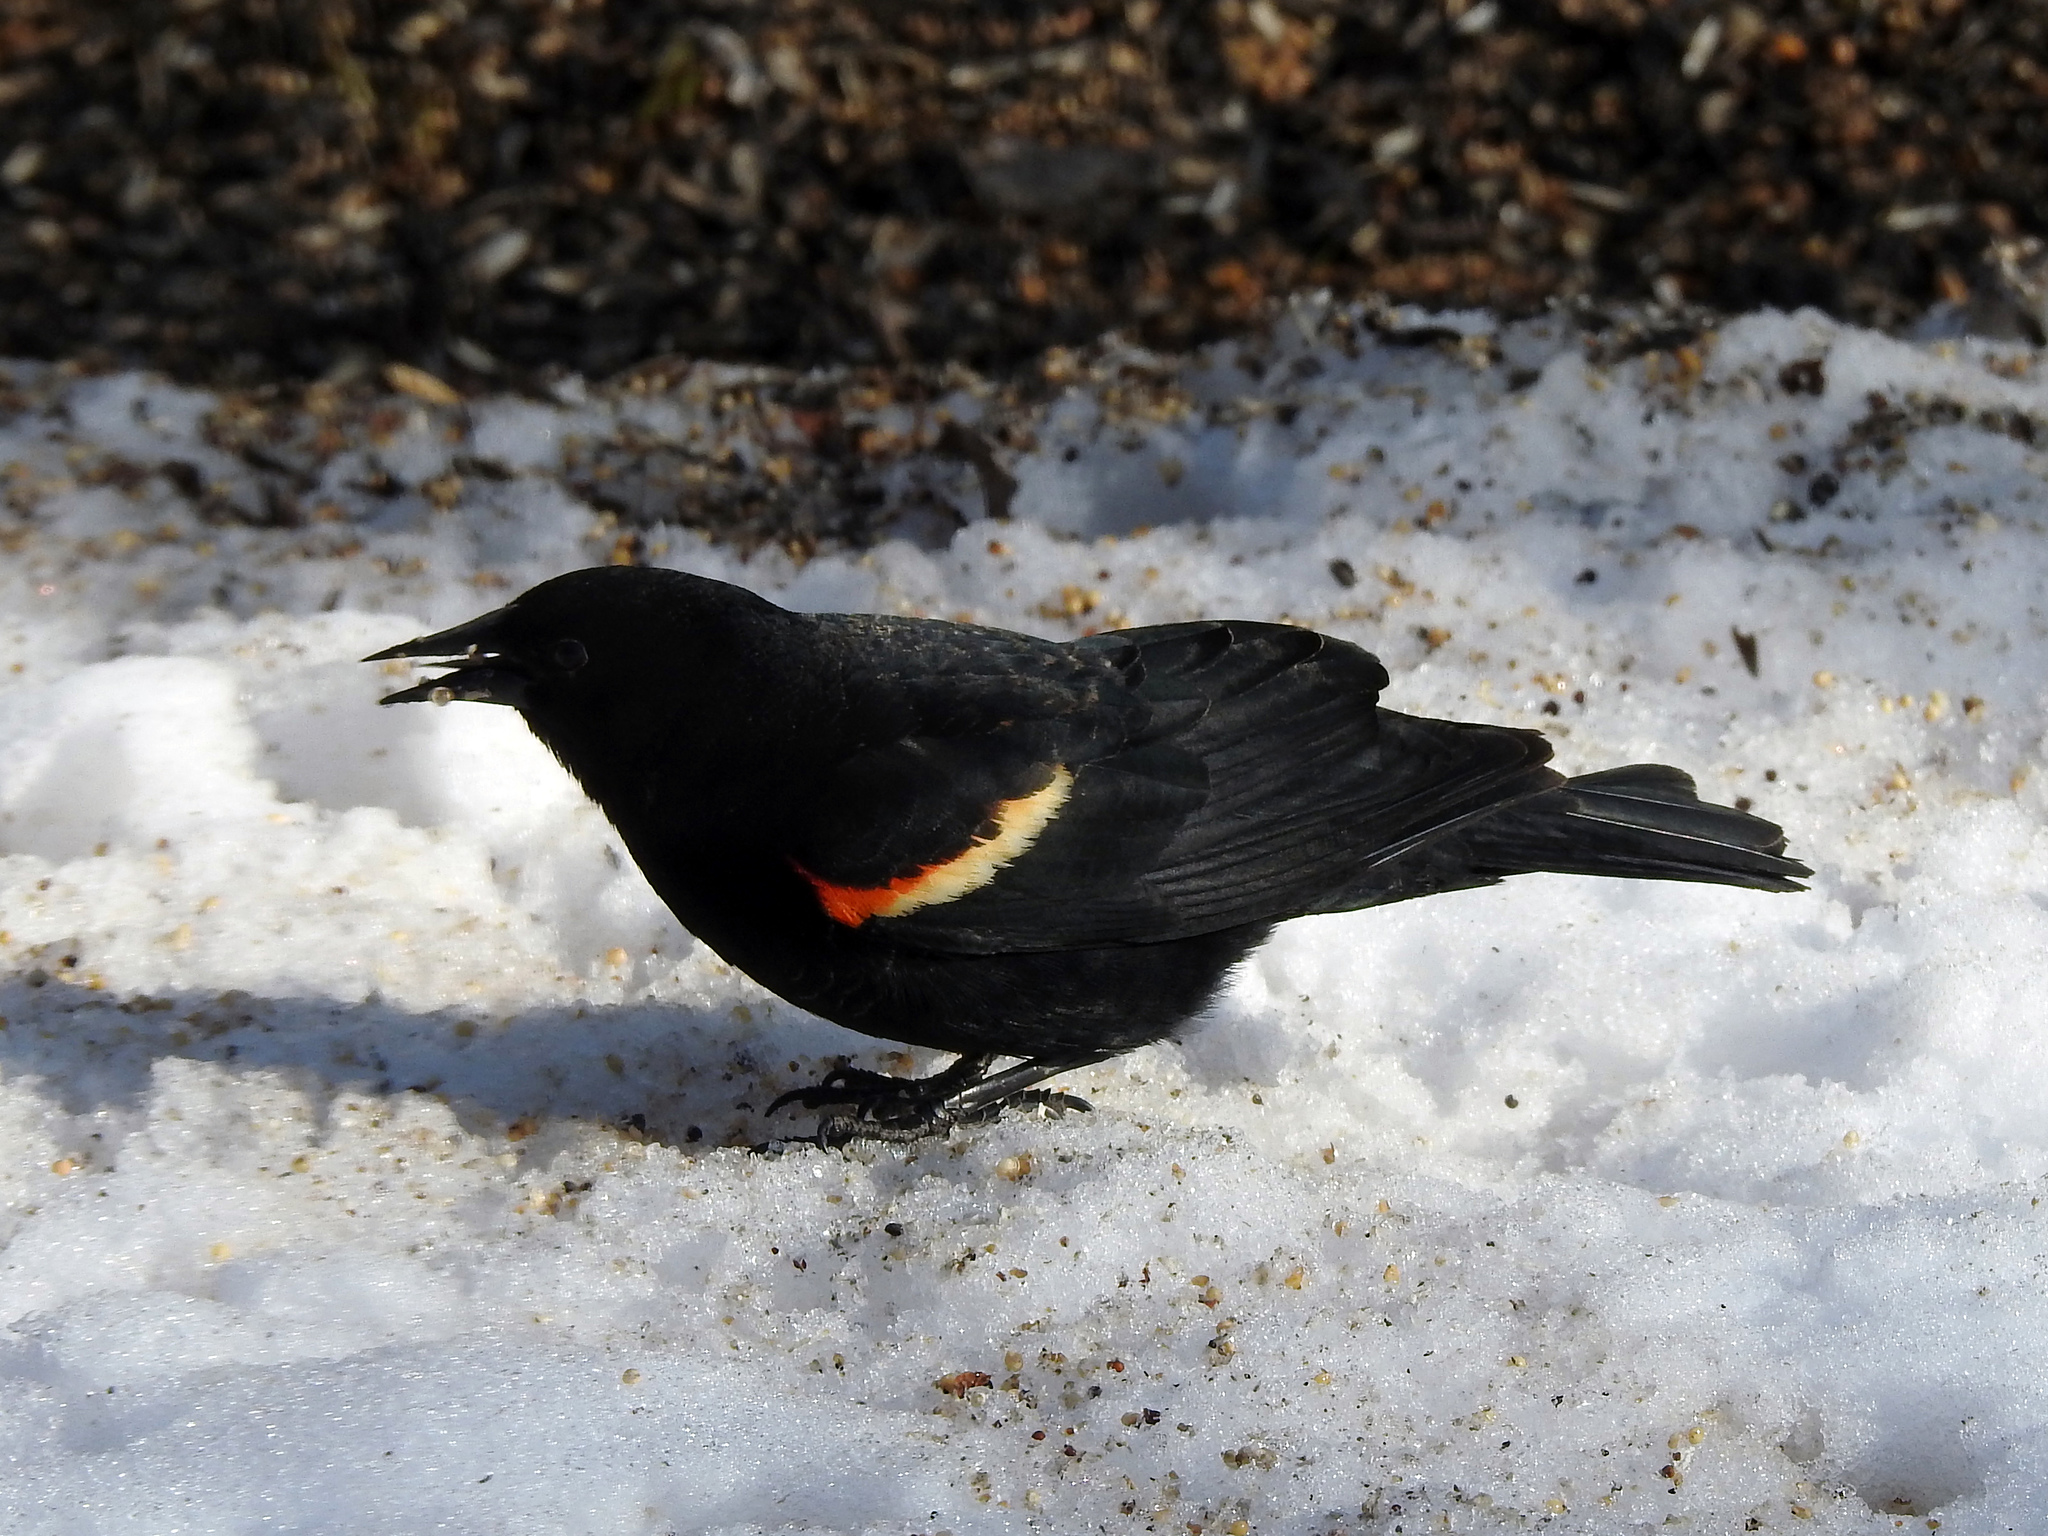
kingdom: Animalia
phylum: Chordata
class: Aves
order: Passeriformes
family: Icteridae
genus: Agelaius
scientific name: Agelaius phoeniceus
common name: Red-winged blackbird
